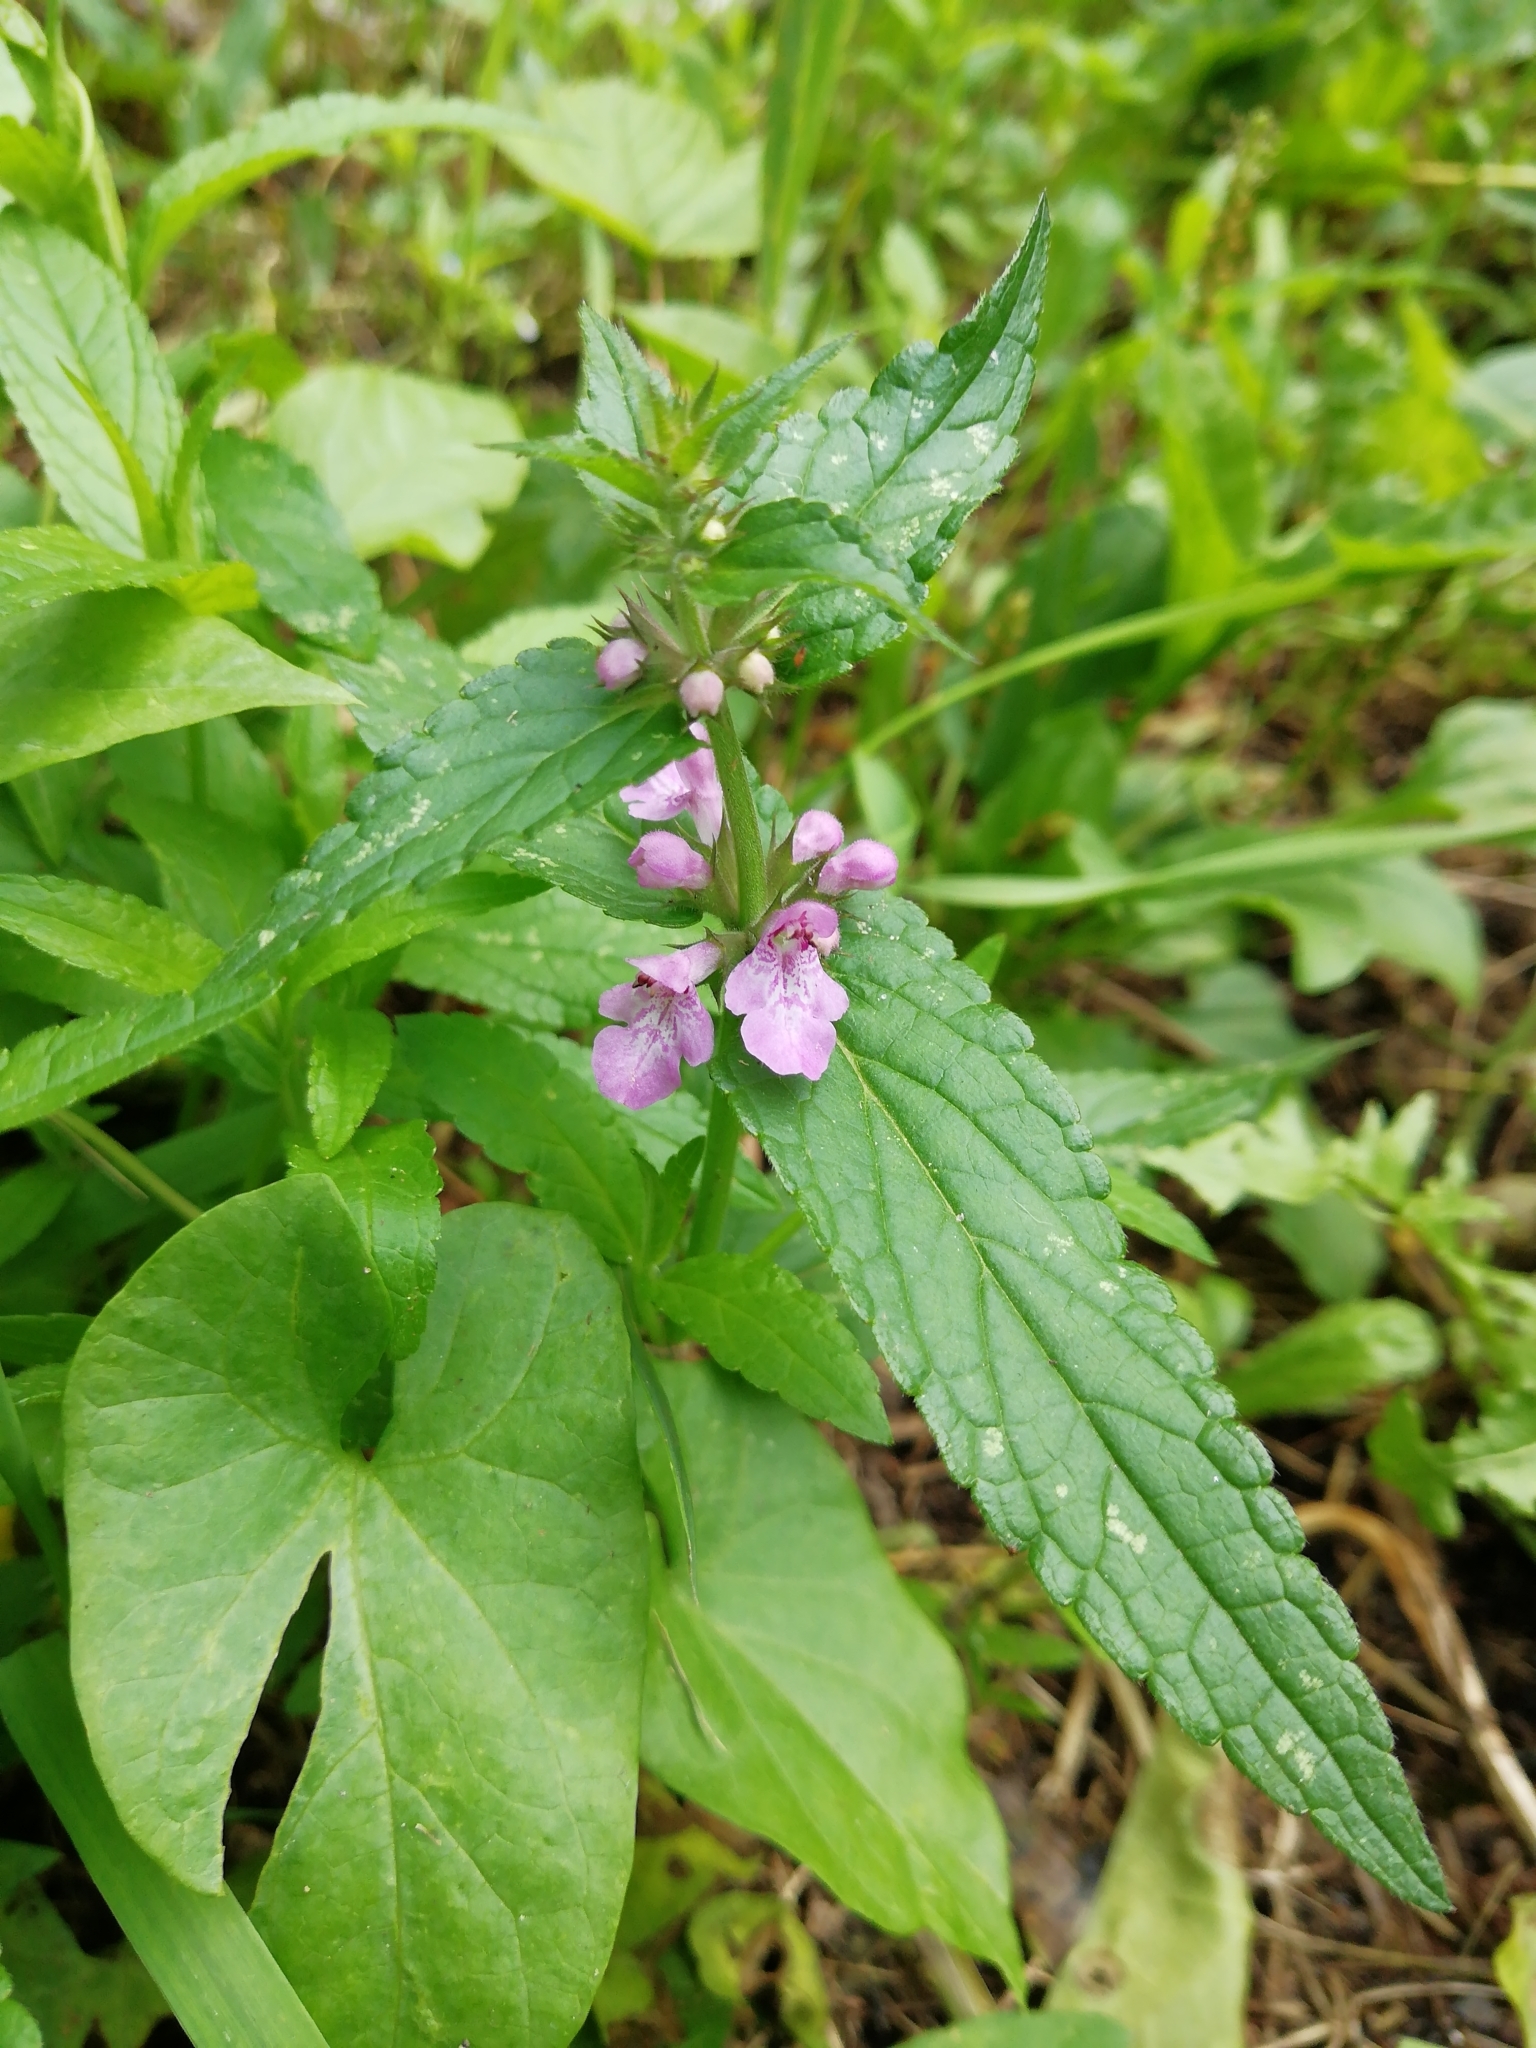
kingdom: Plantae
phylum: Tracheophyta
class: Magnoliopsida
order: Lamiales
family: Lamiaceae
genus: Stachys
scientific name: Stachys palustris
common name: Marsh woundwort
